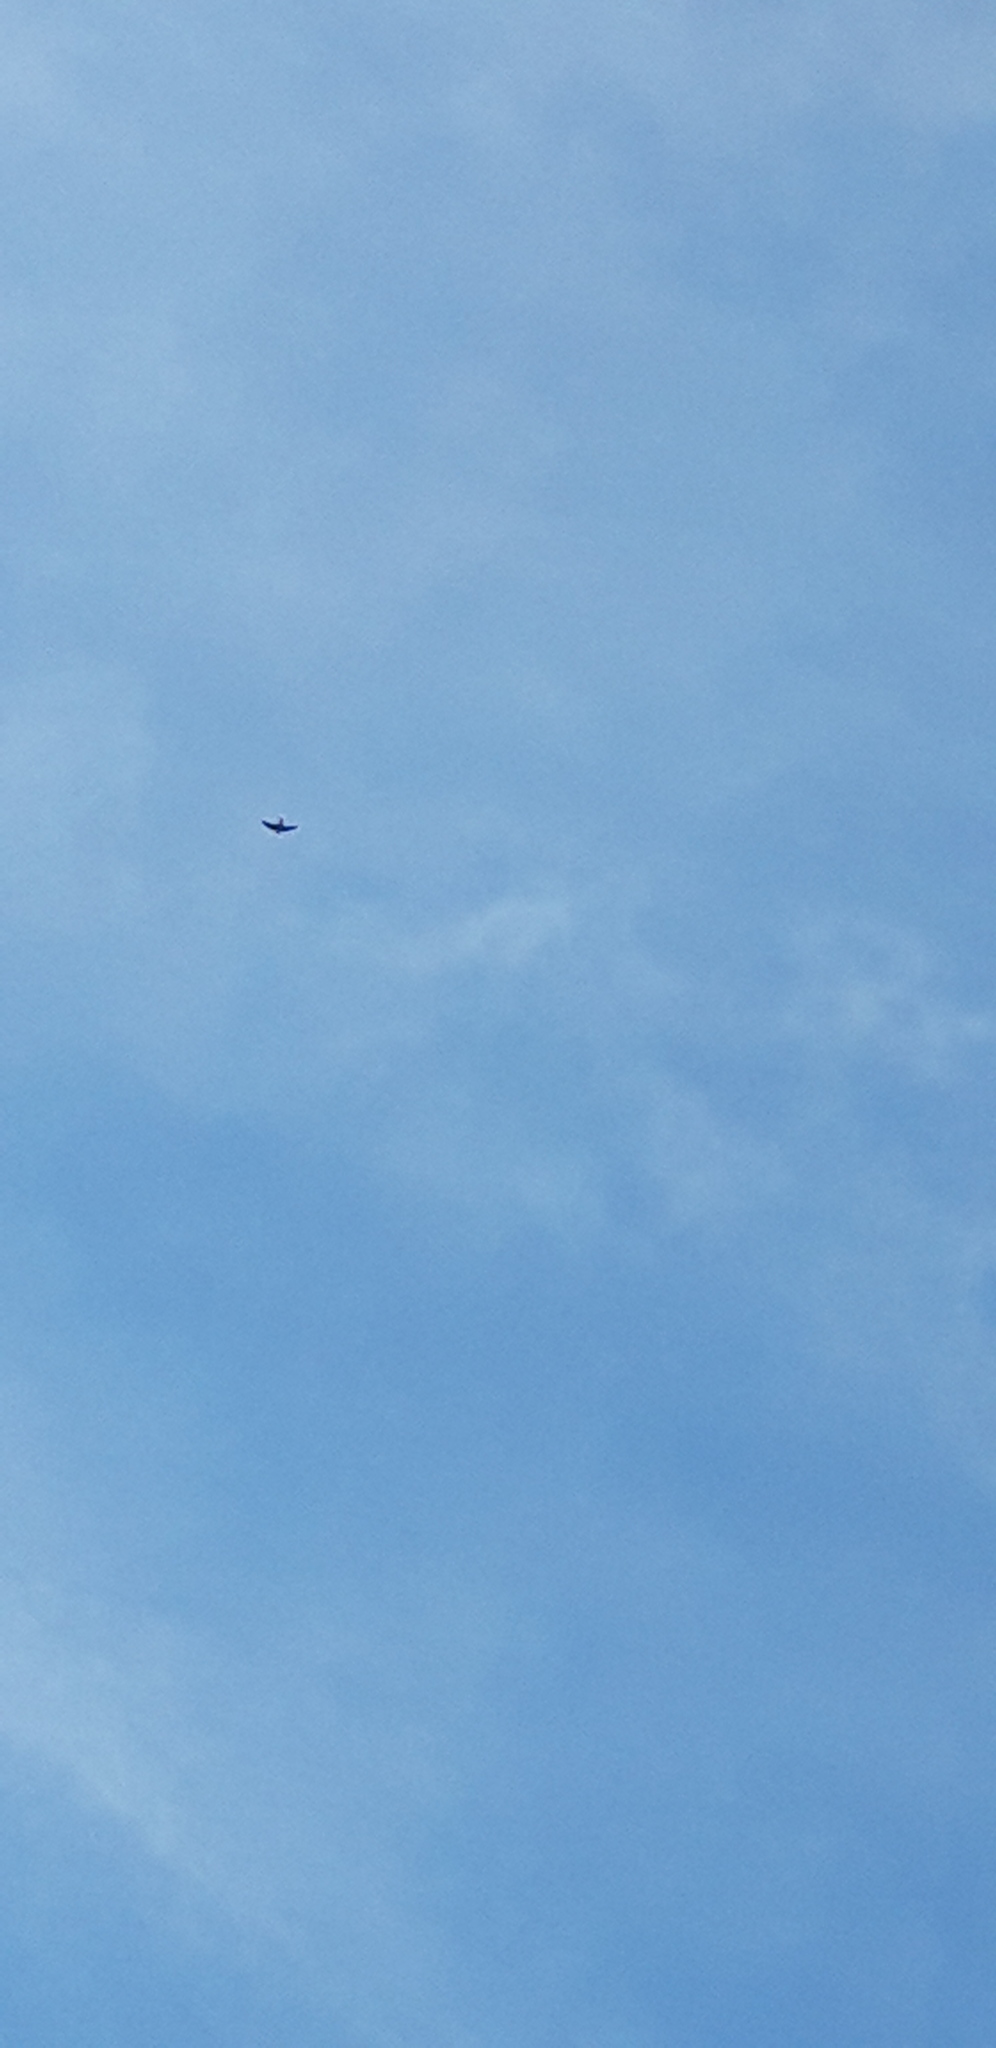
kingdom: Animalia
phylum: Chordata
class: Aves
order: Passeriformes
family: Hirundinidae
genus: Delichon
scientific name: Delichon urbicum
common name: Common house martin
